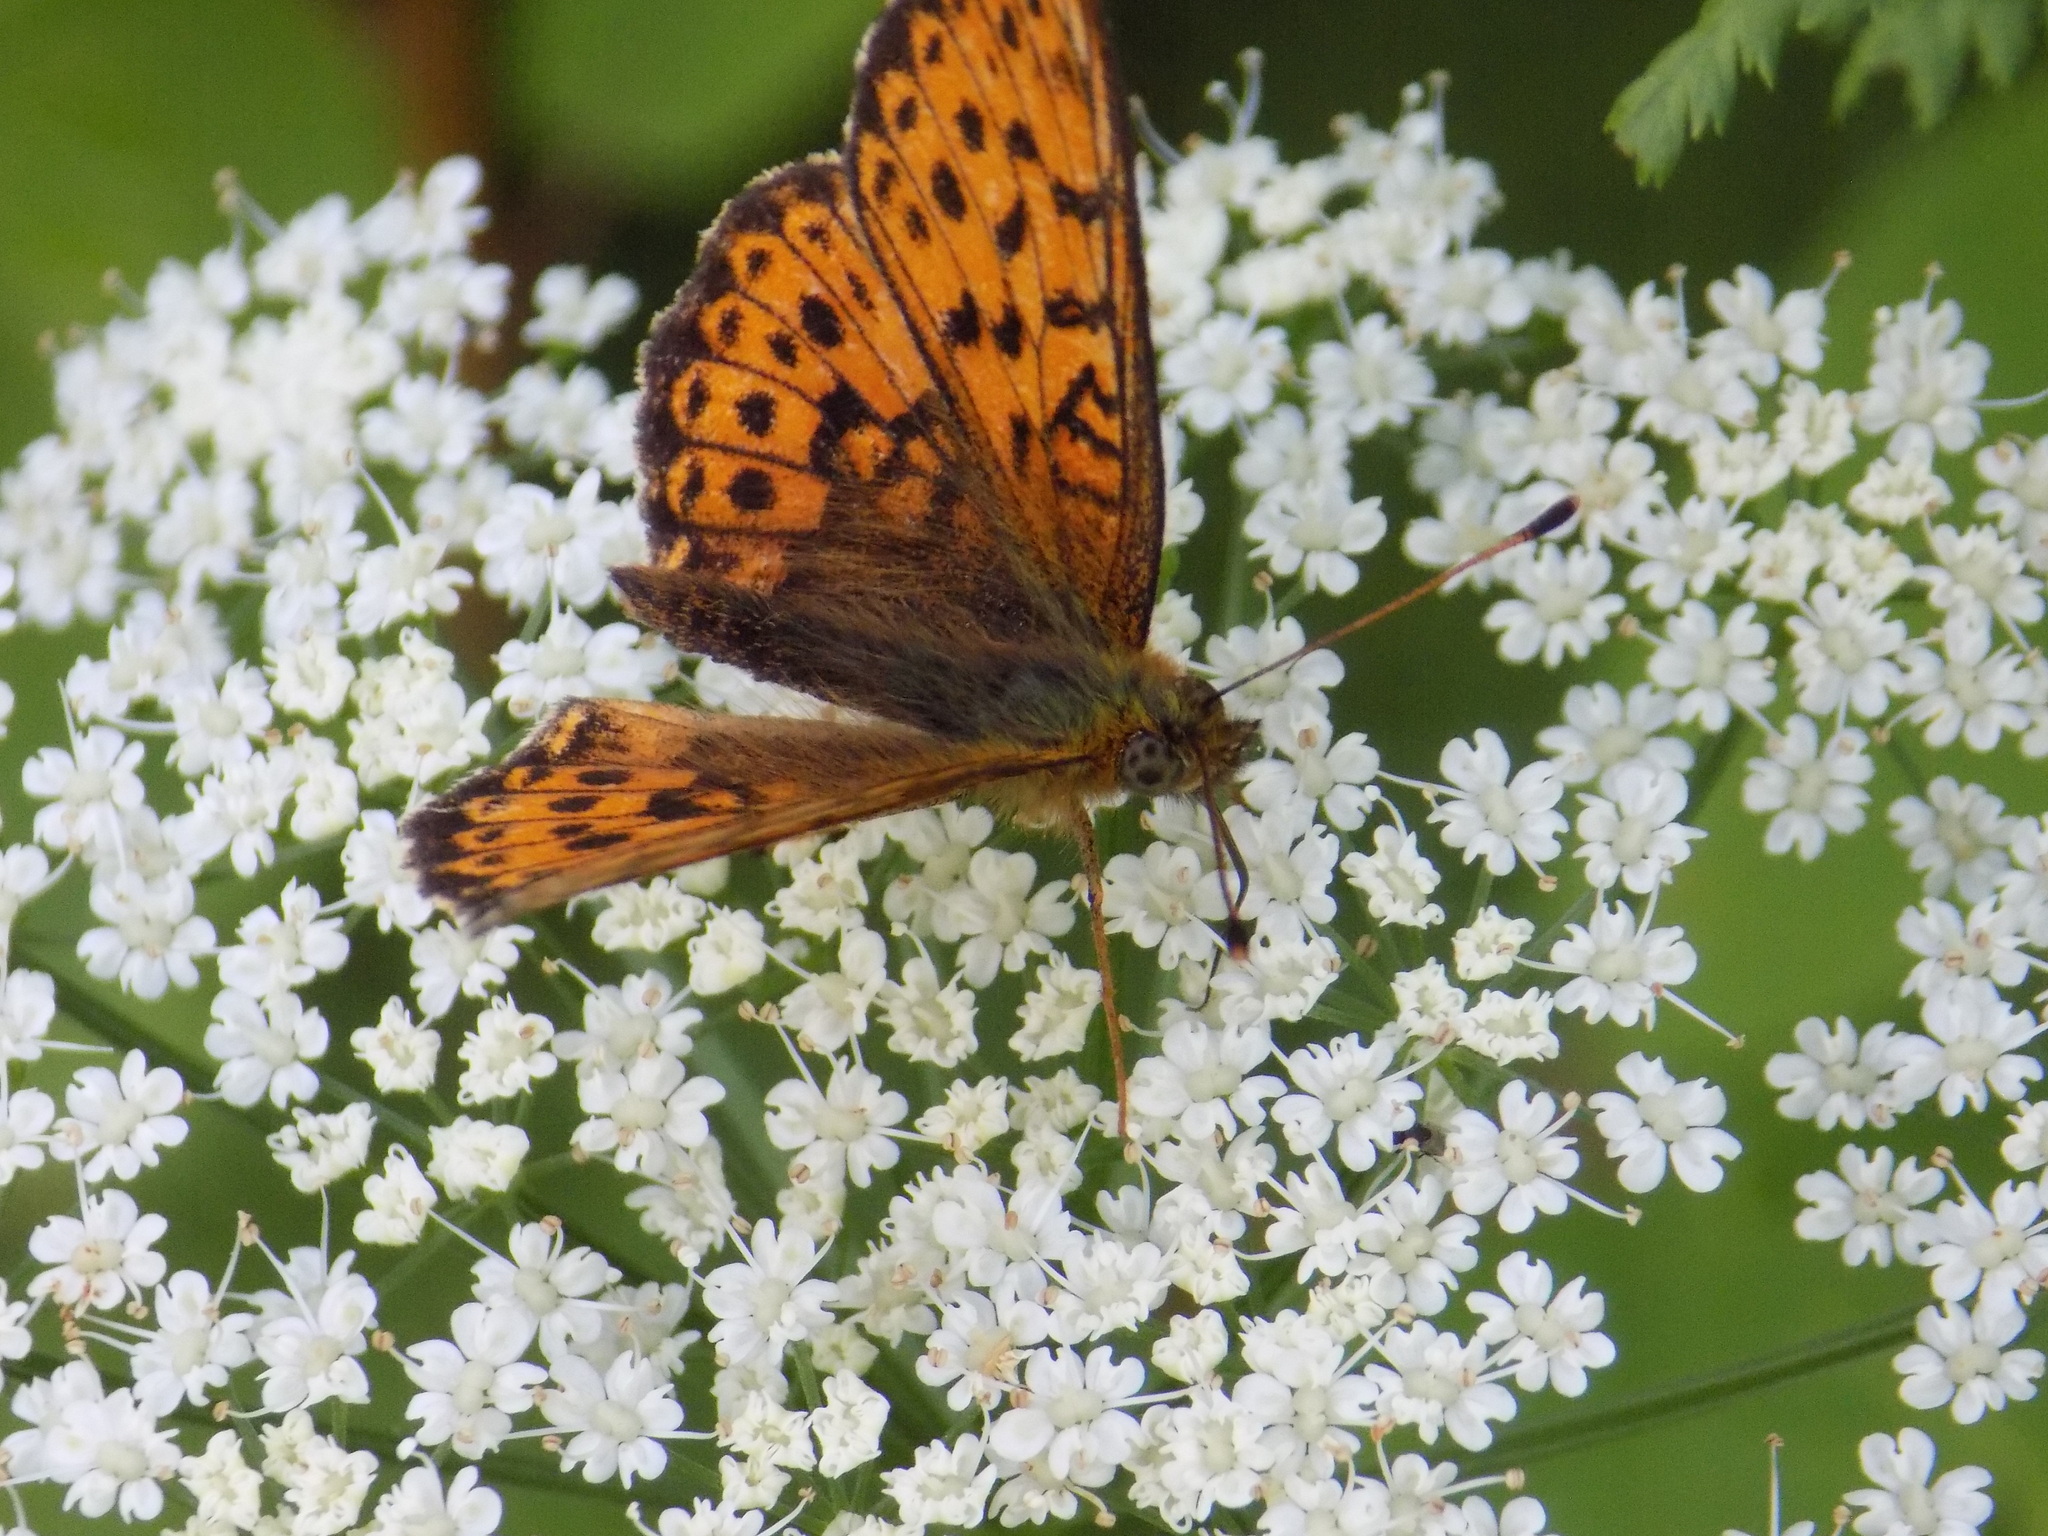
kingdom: Animalia
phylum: Arthropoda
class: Insecta
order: Lepidoptera
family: Nymphalidae
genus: Brenthis
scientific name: Brenthis ino
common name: Lesser marbled fritillary
